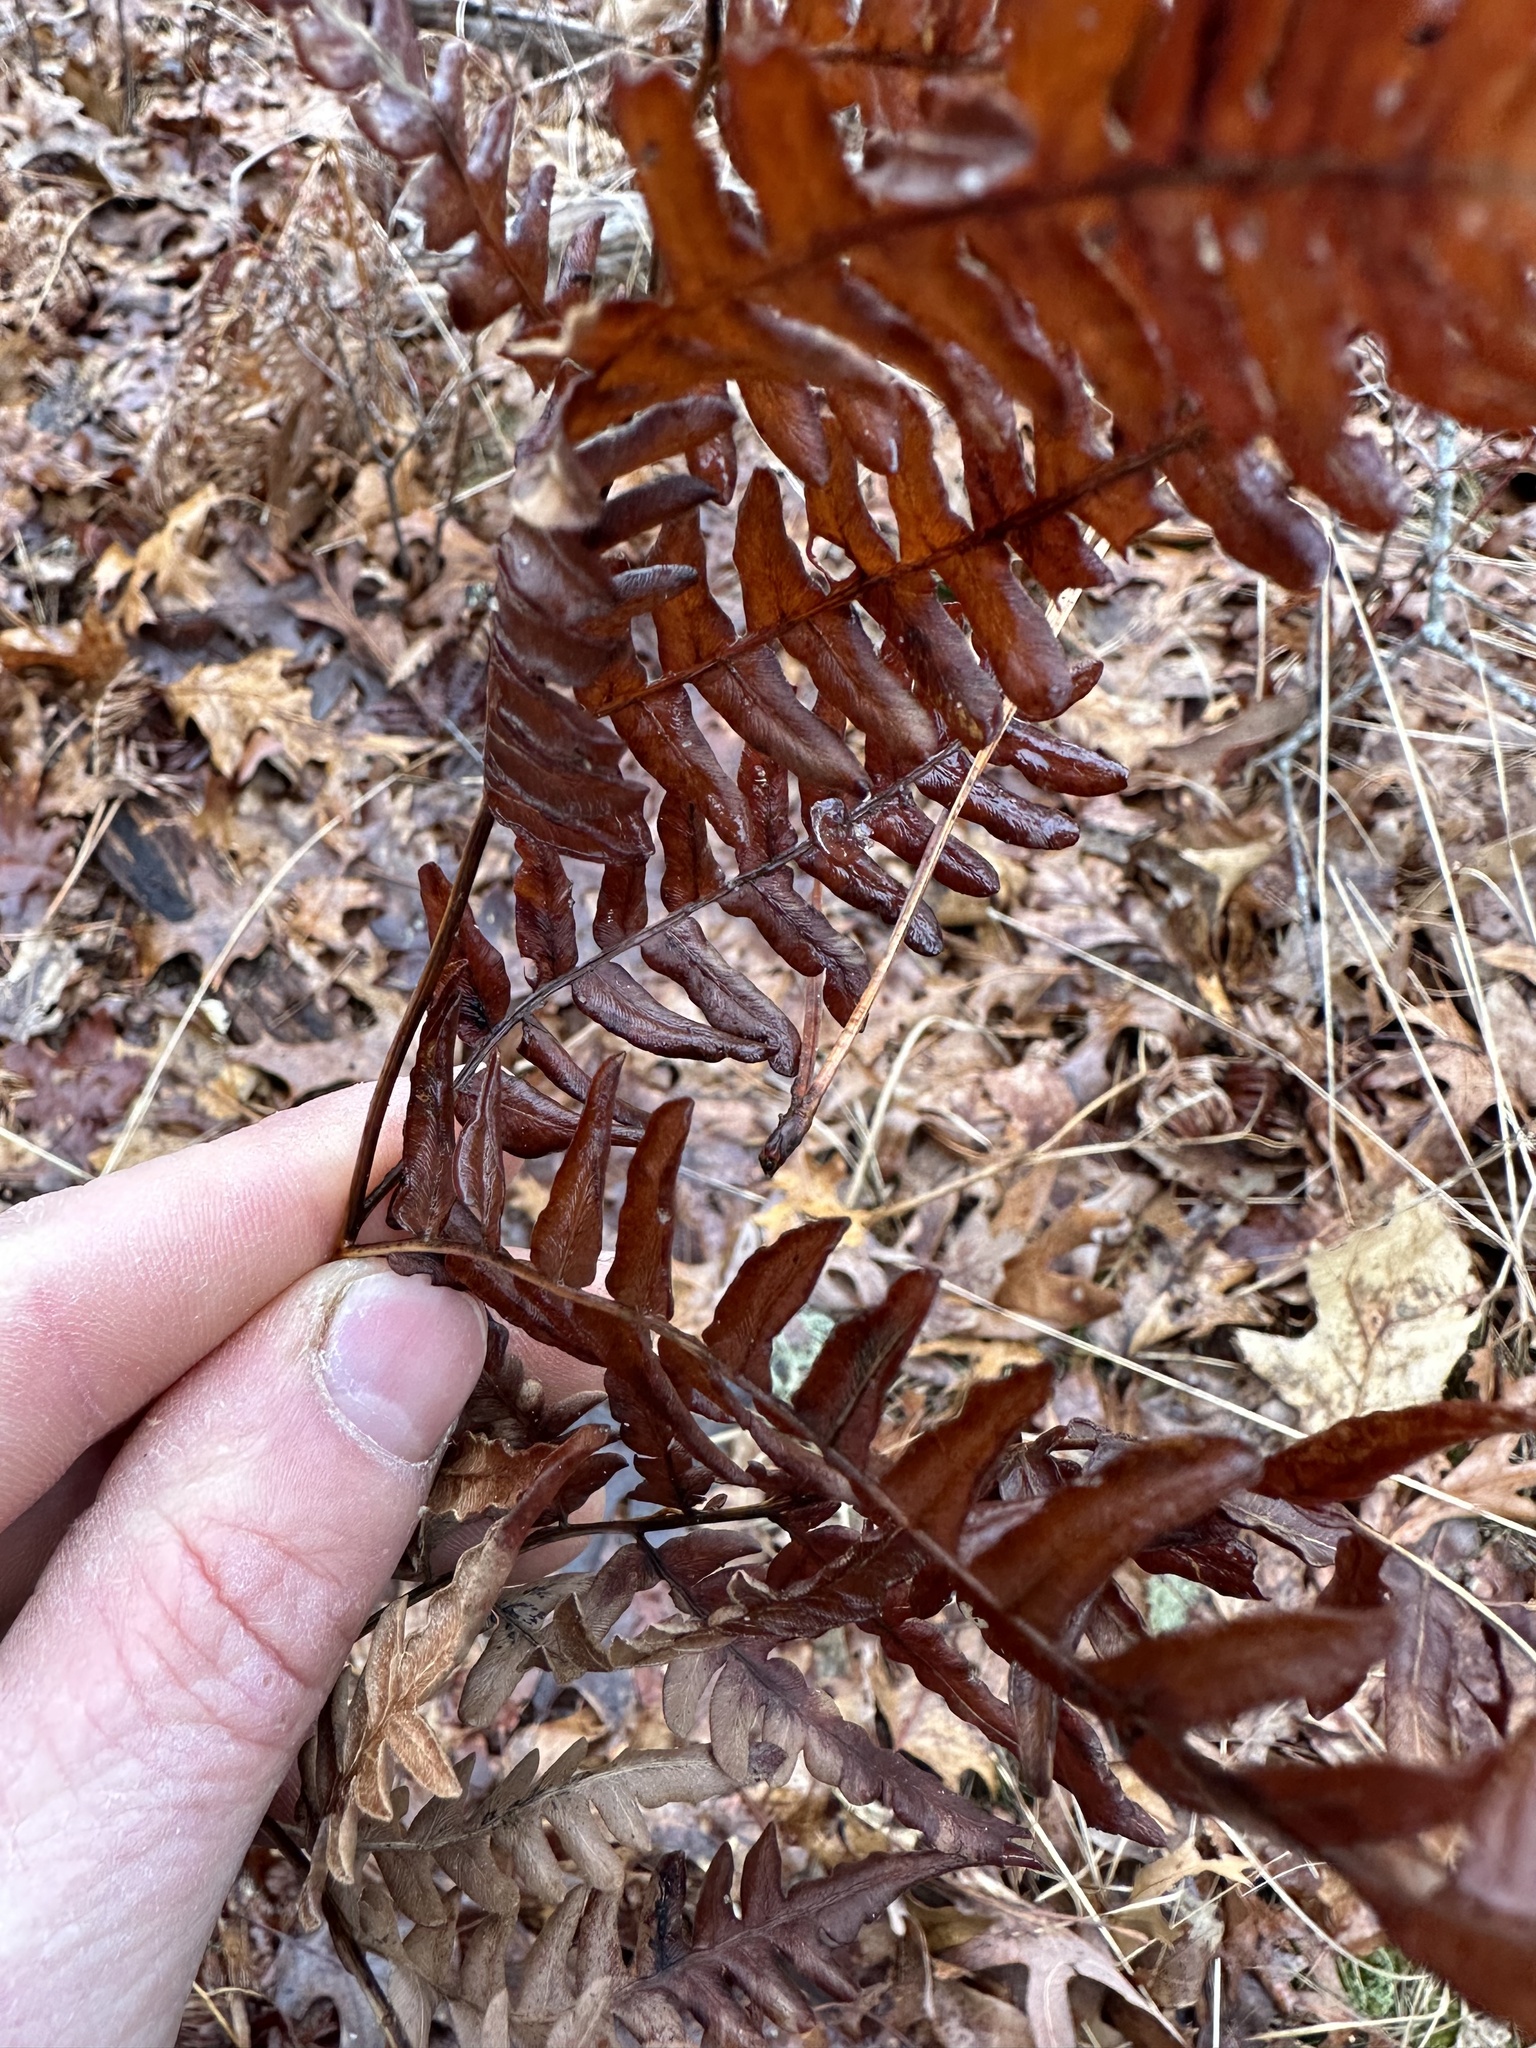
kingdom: Plantae
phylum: Tracheophyta
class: Polypodiopsida
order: Polypodiales
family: Dennstaedtiaceae
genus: Pteridium
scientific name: Pteridium aquilinum
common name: Bracken
